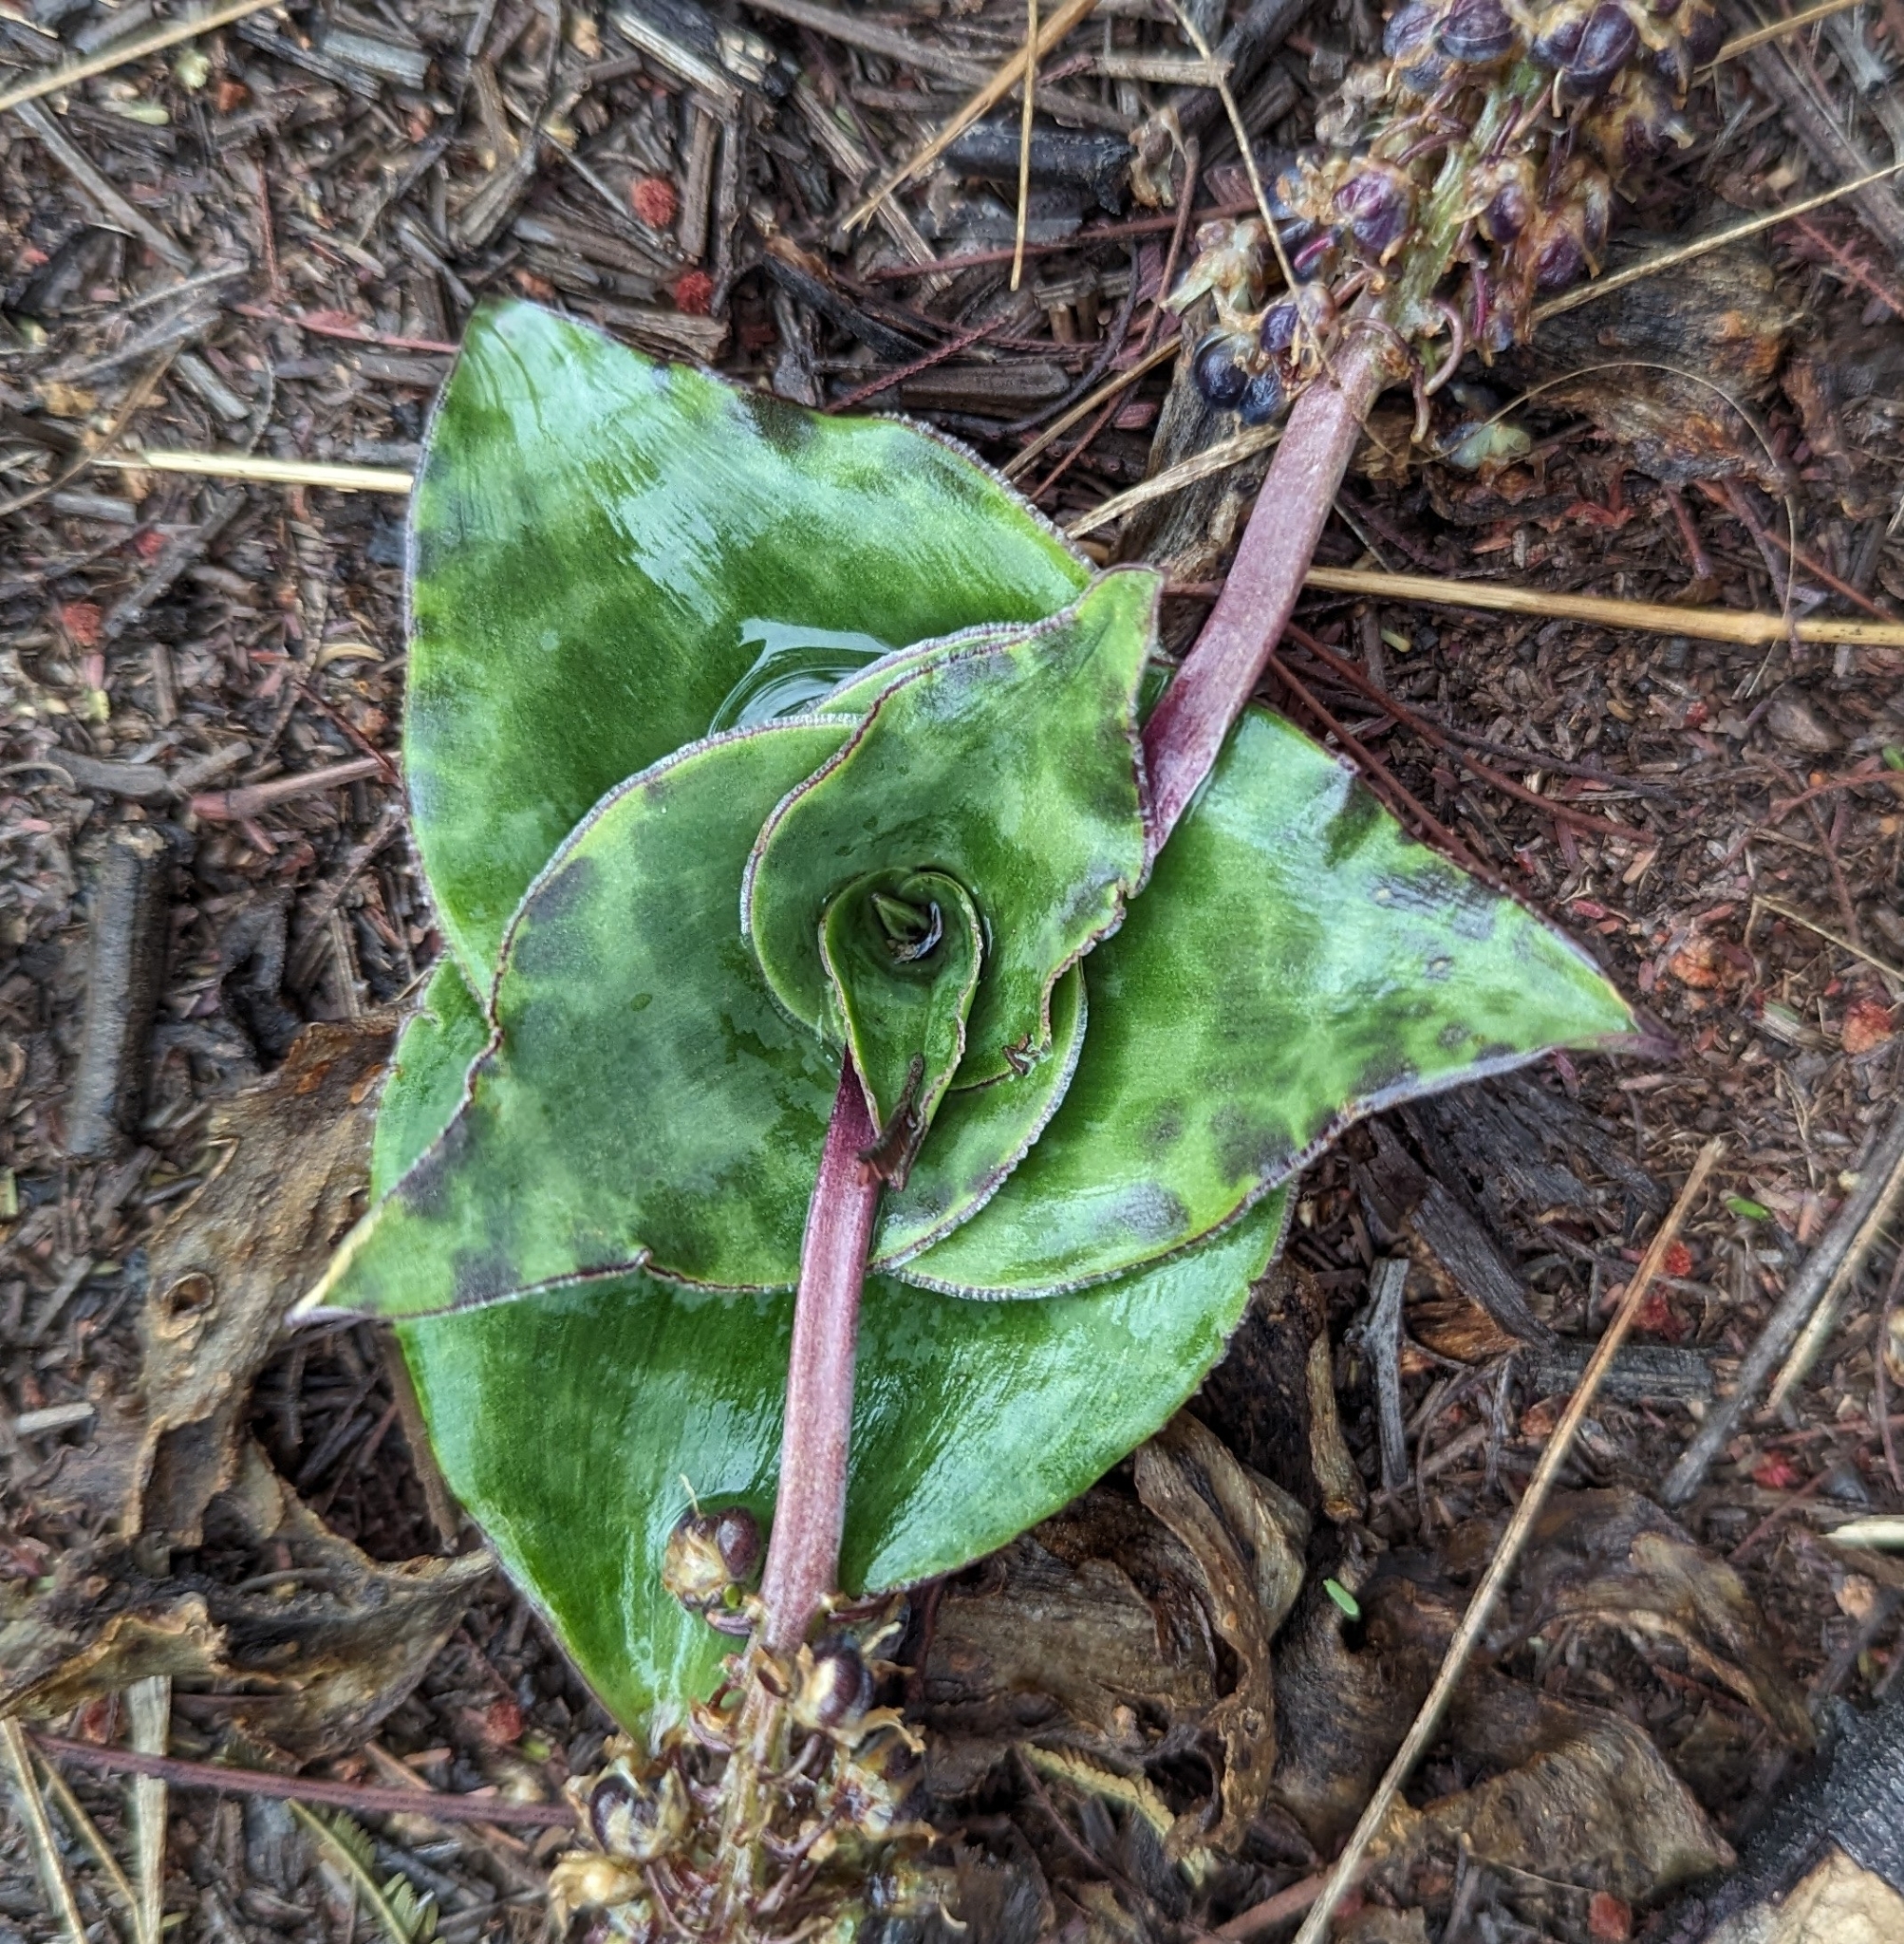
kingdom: Plantae
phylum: Tracheophyta
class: Liliopsida
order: Asparagales
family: Asparagaceae
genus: Ledebouria
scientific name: Ledebouria ovatifolia
